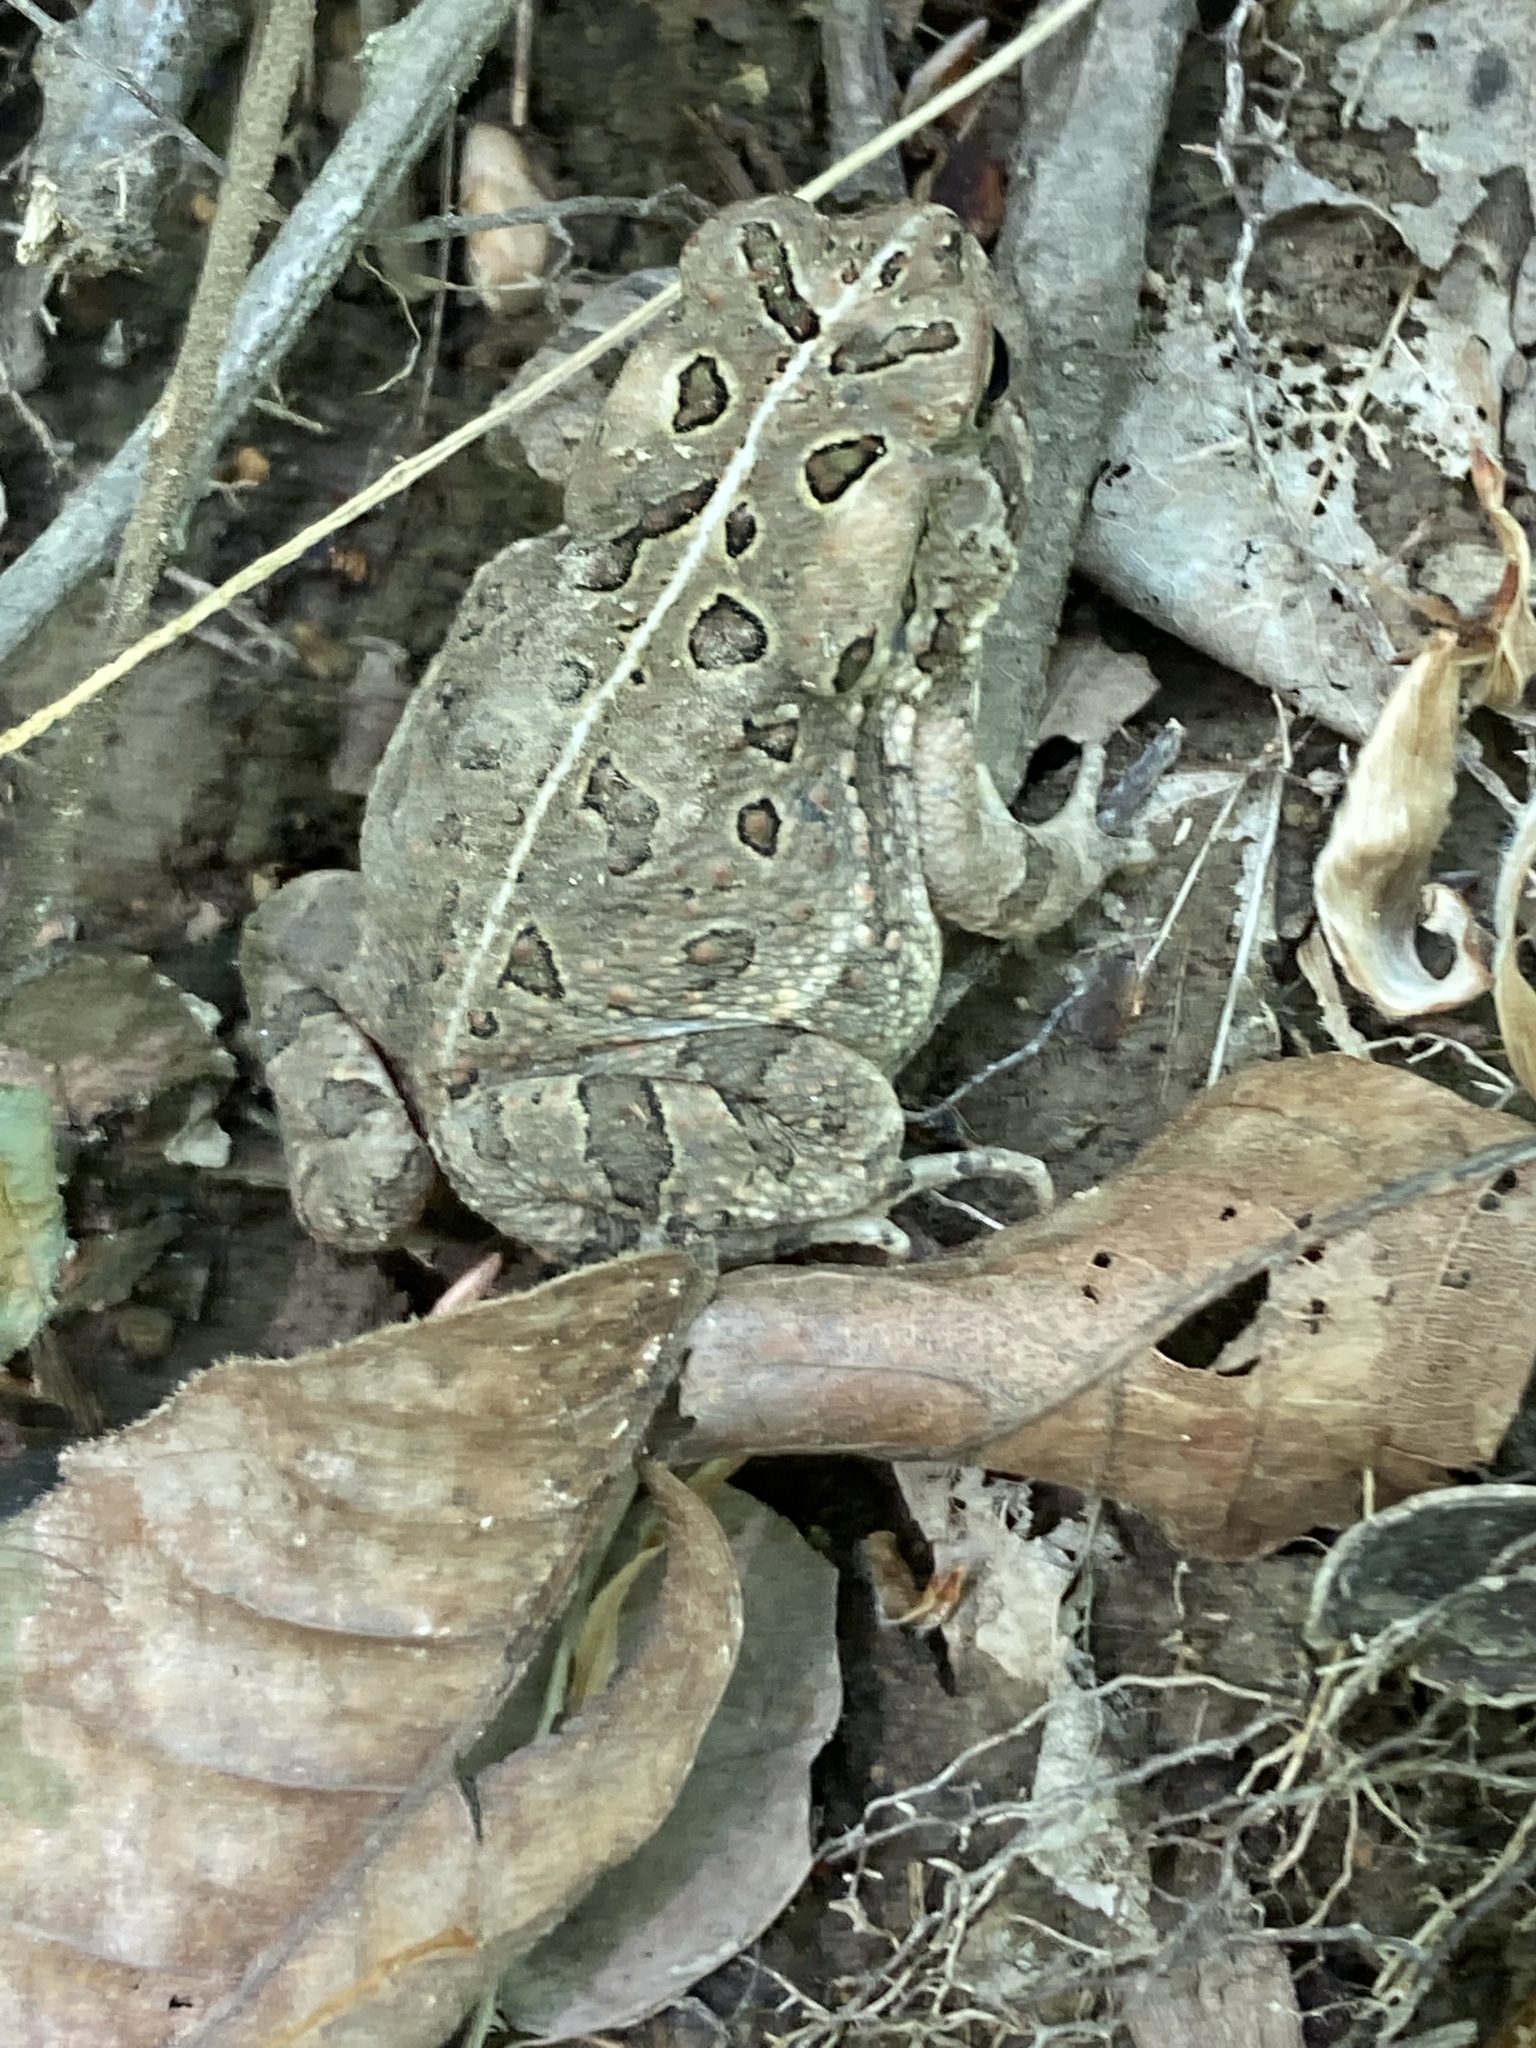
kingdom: Animalia
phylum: Chordata
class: Amphibia
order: Anura
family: Bufonidae
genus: Anaxyrus
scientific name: Anaxyrus fowleri
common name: Fowler's toad
